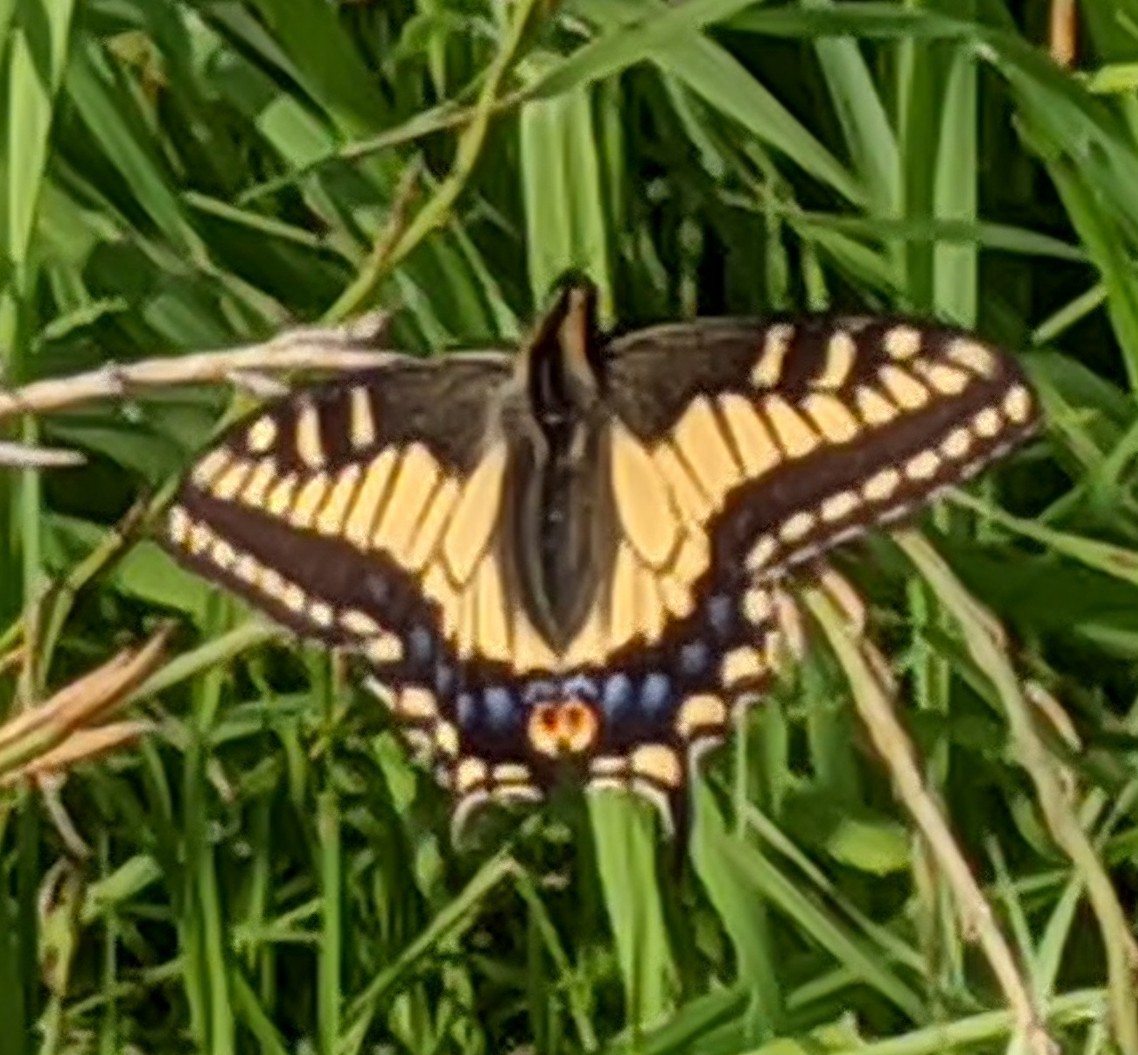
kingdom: Animalia
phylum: Arthropoda
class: Insecta
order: Lepidoptera
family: Papilionidae
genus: Papilio
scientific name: Papilio zelicaon
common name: Anise swallowtail
